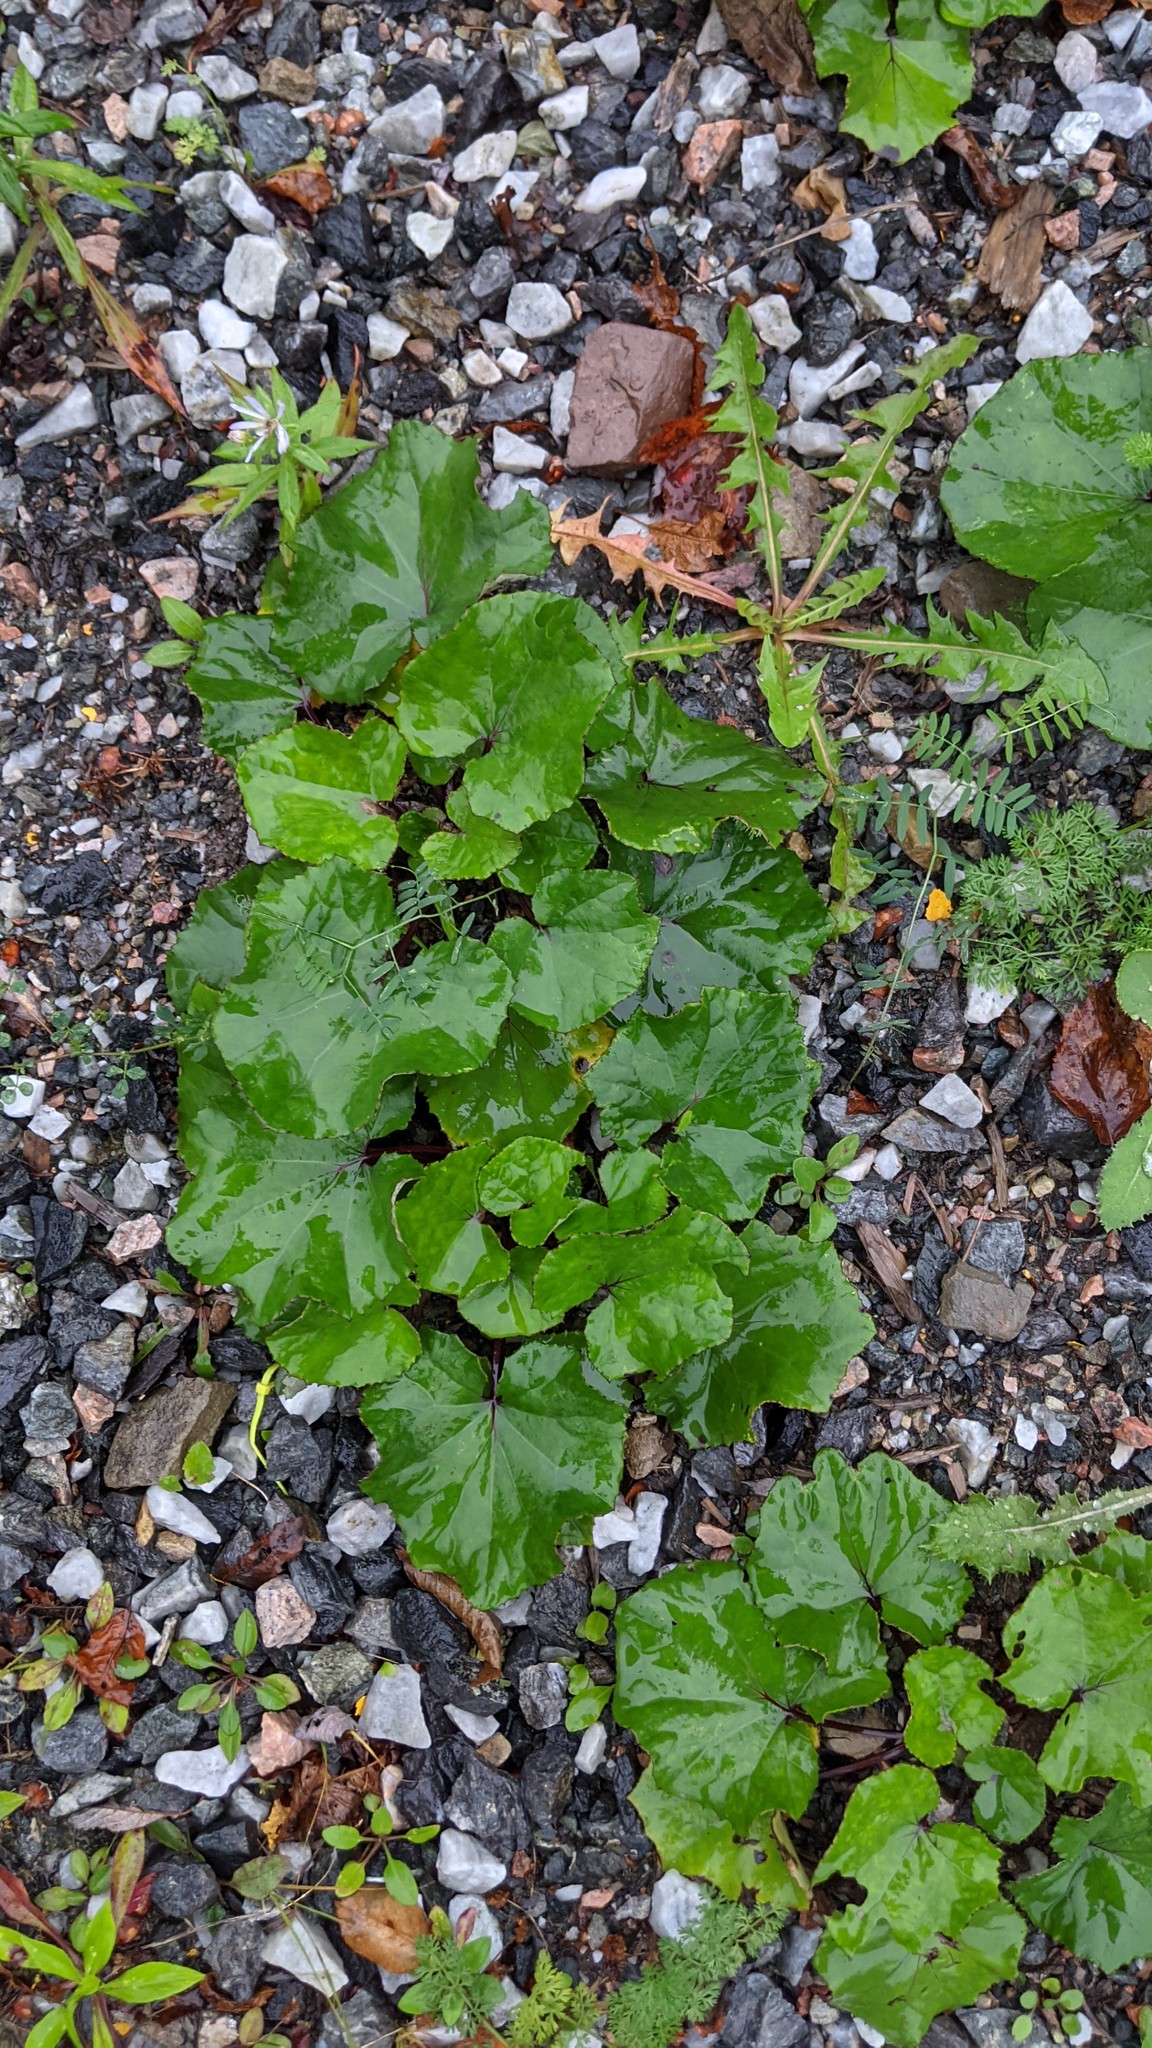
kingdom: Plantae
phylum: Tracheophyta
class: Magnoliopsida
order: Asterales
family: Asteraceae
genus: Tussilago
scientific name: Tussilago farfara
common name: Coltsfoot
